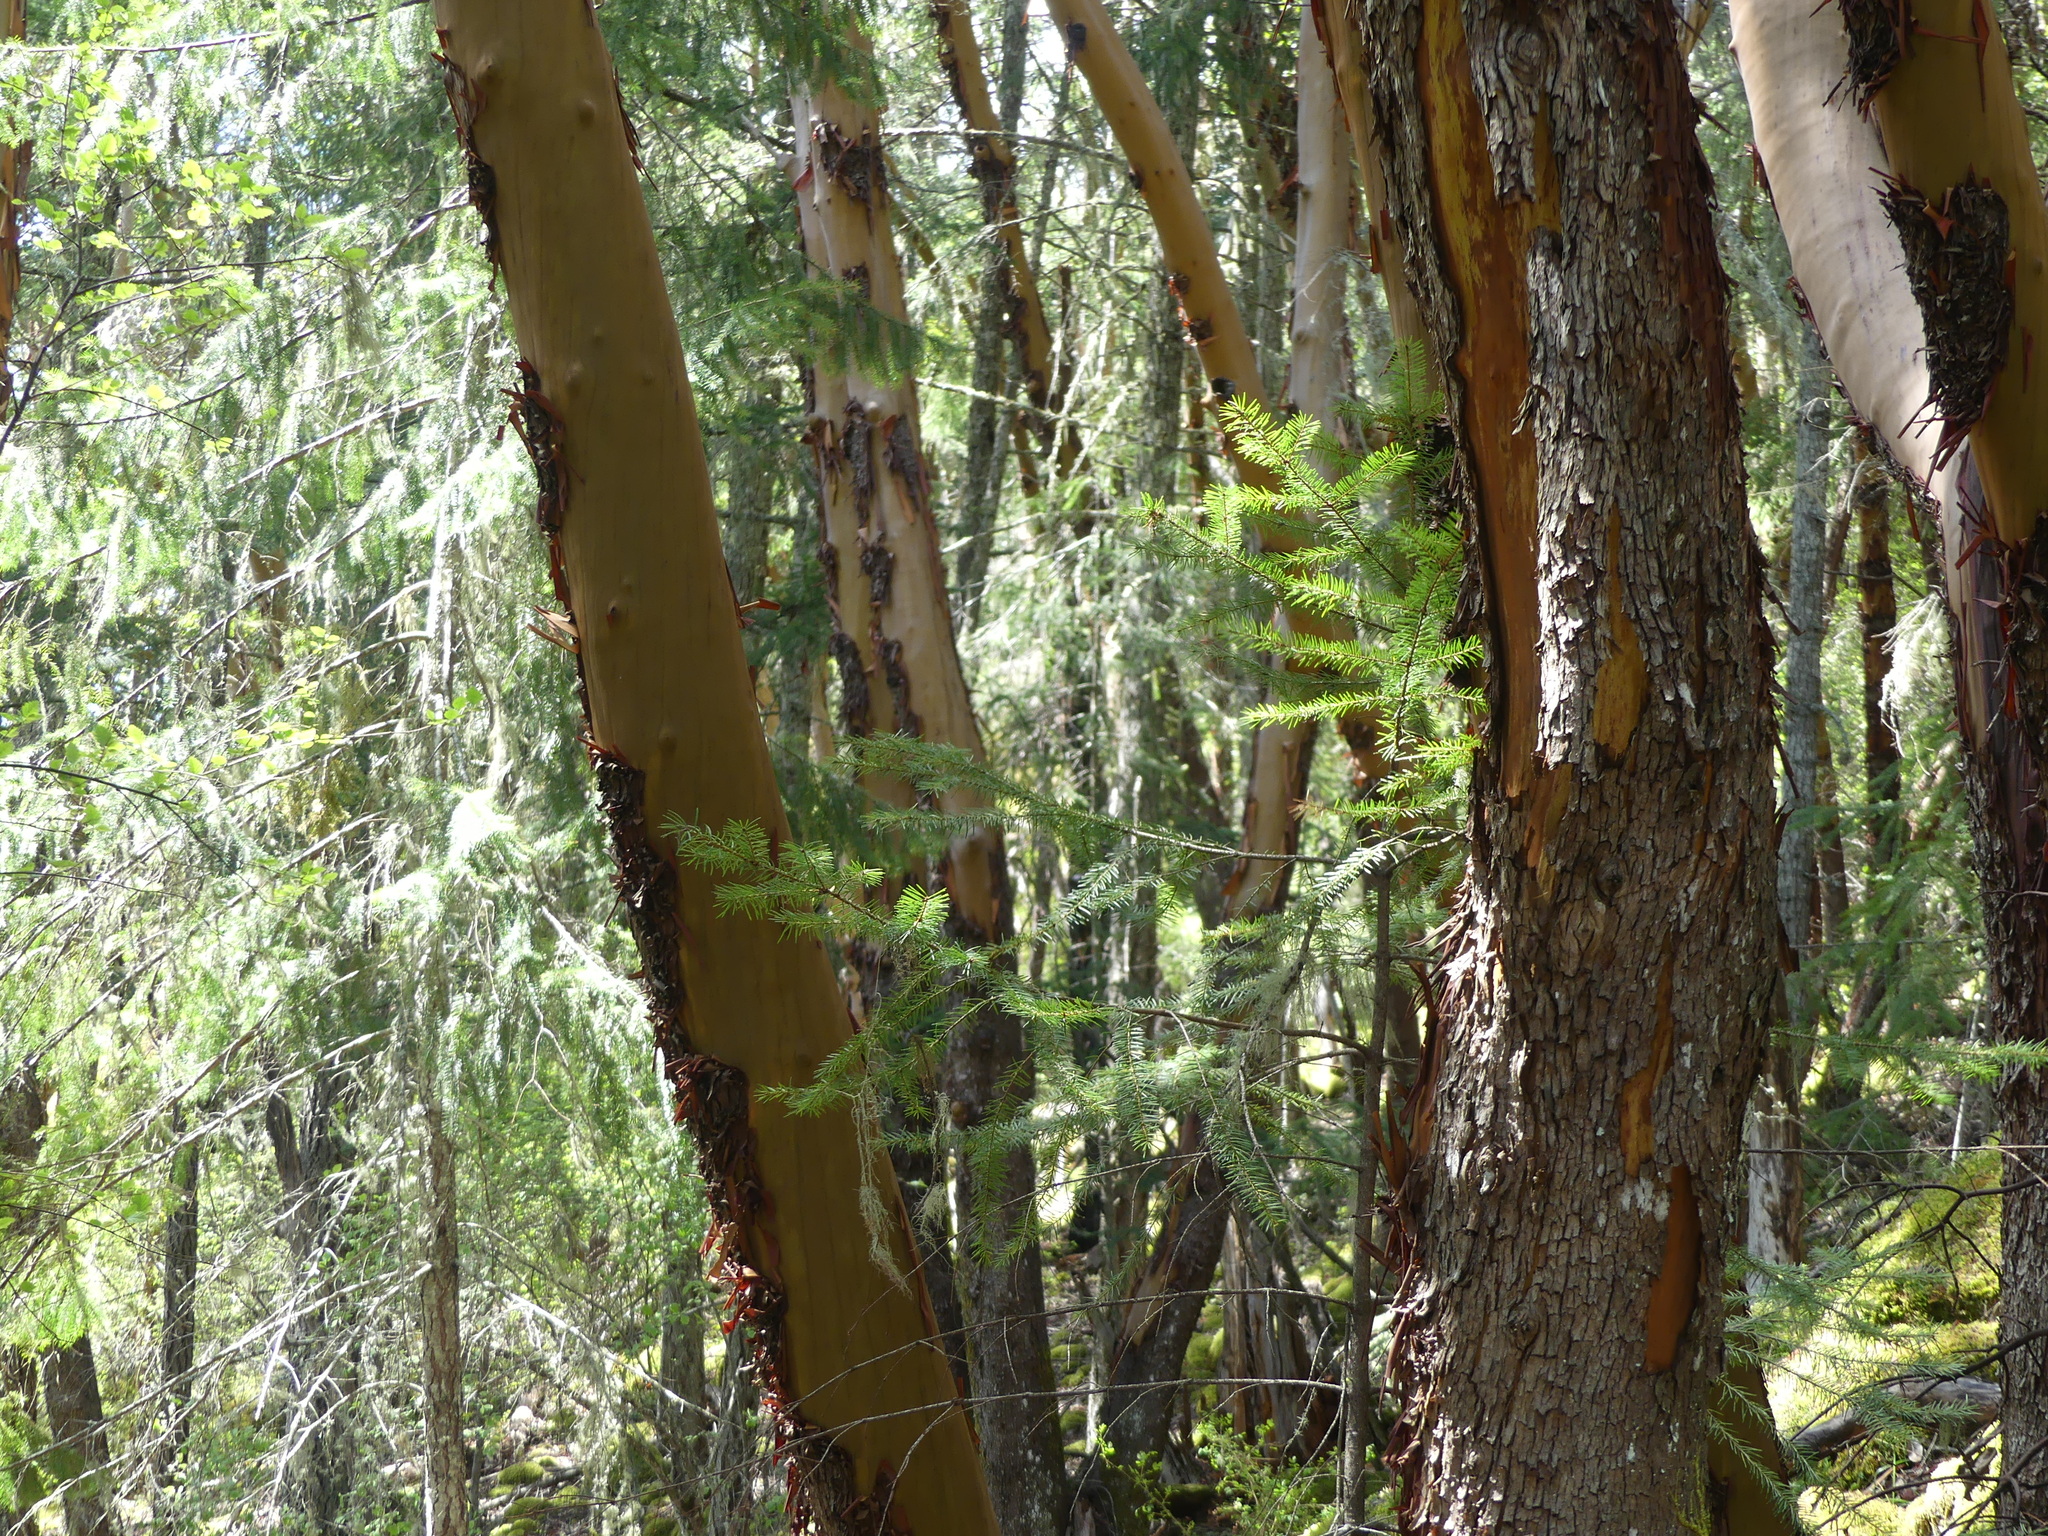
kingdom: Plantae
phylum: Tracheophyta
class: Magnoliopsida
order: Ericales
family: Ericaceae
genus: Arbutus
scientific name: Arbutus menziesii
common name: Pacific madrone
